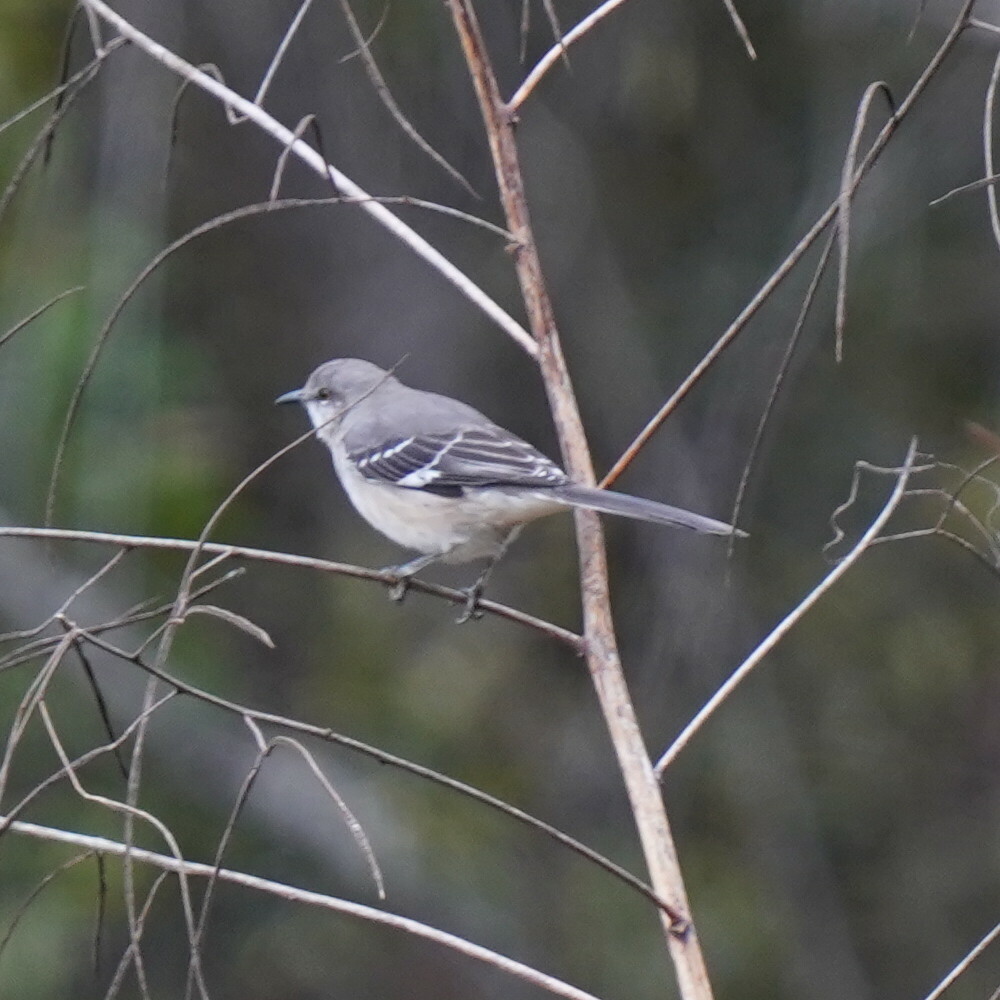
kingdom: Animalia
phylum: Chordata
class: Aves
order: Passeriformes
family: Mimidae
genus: Mimus
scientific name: Mimus polyglottos
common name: Northern mockingbird
